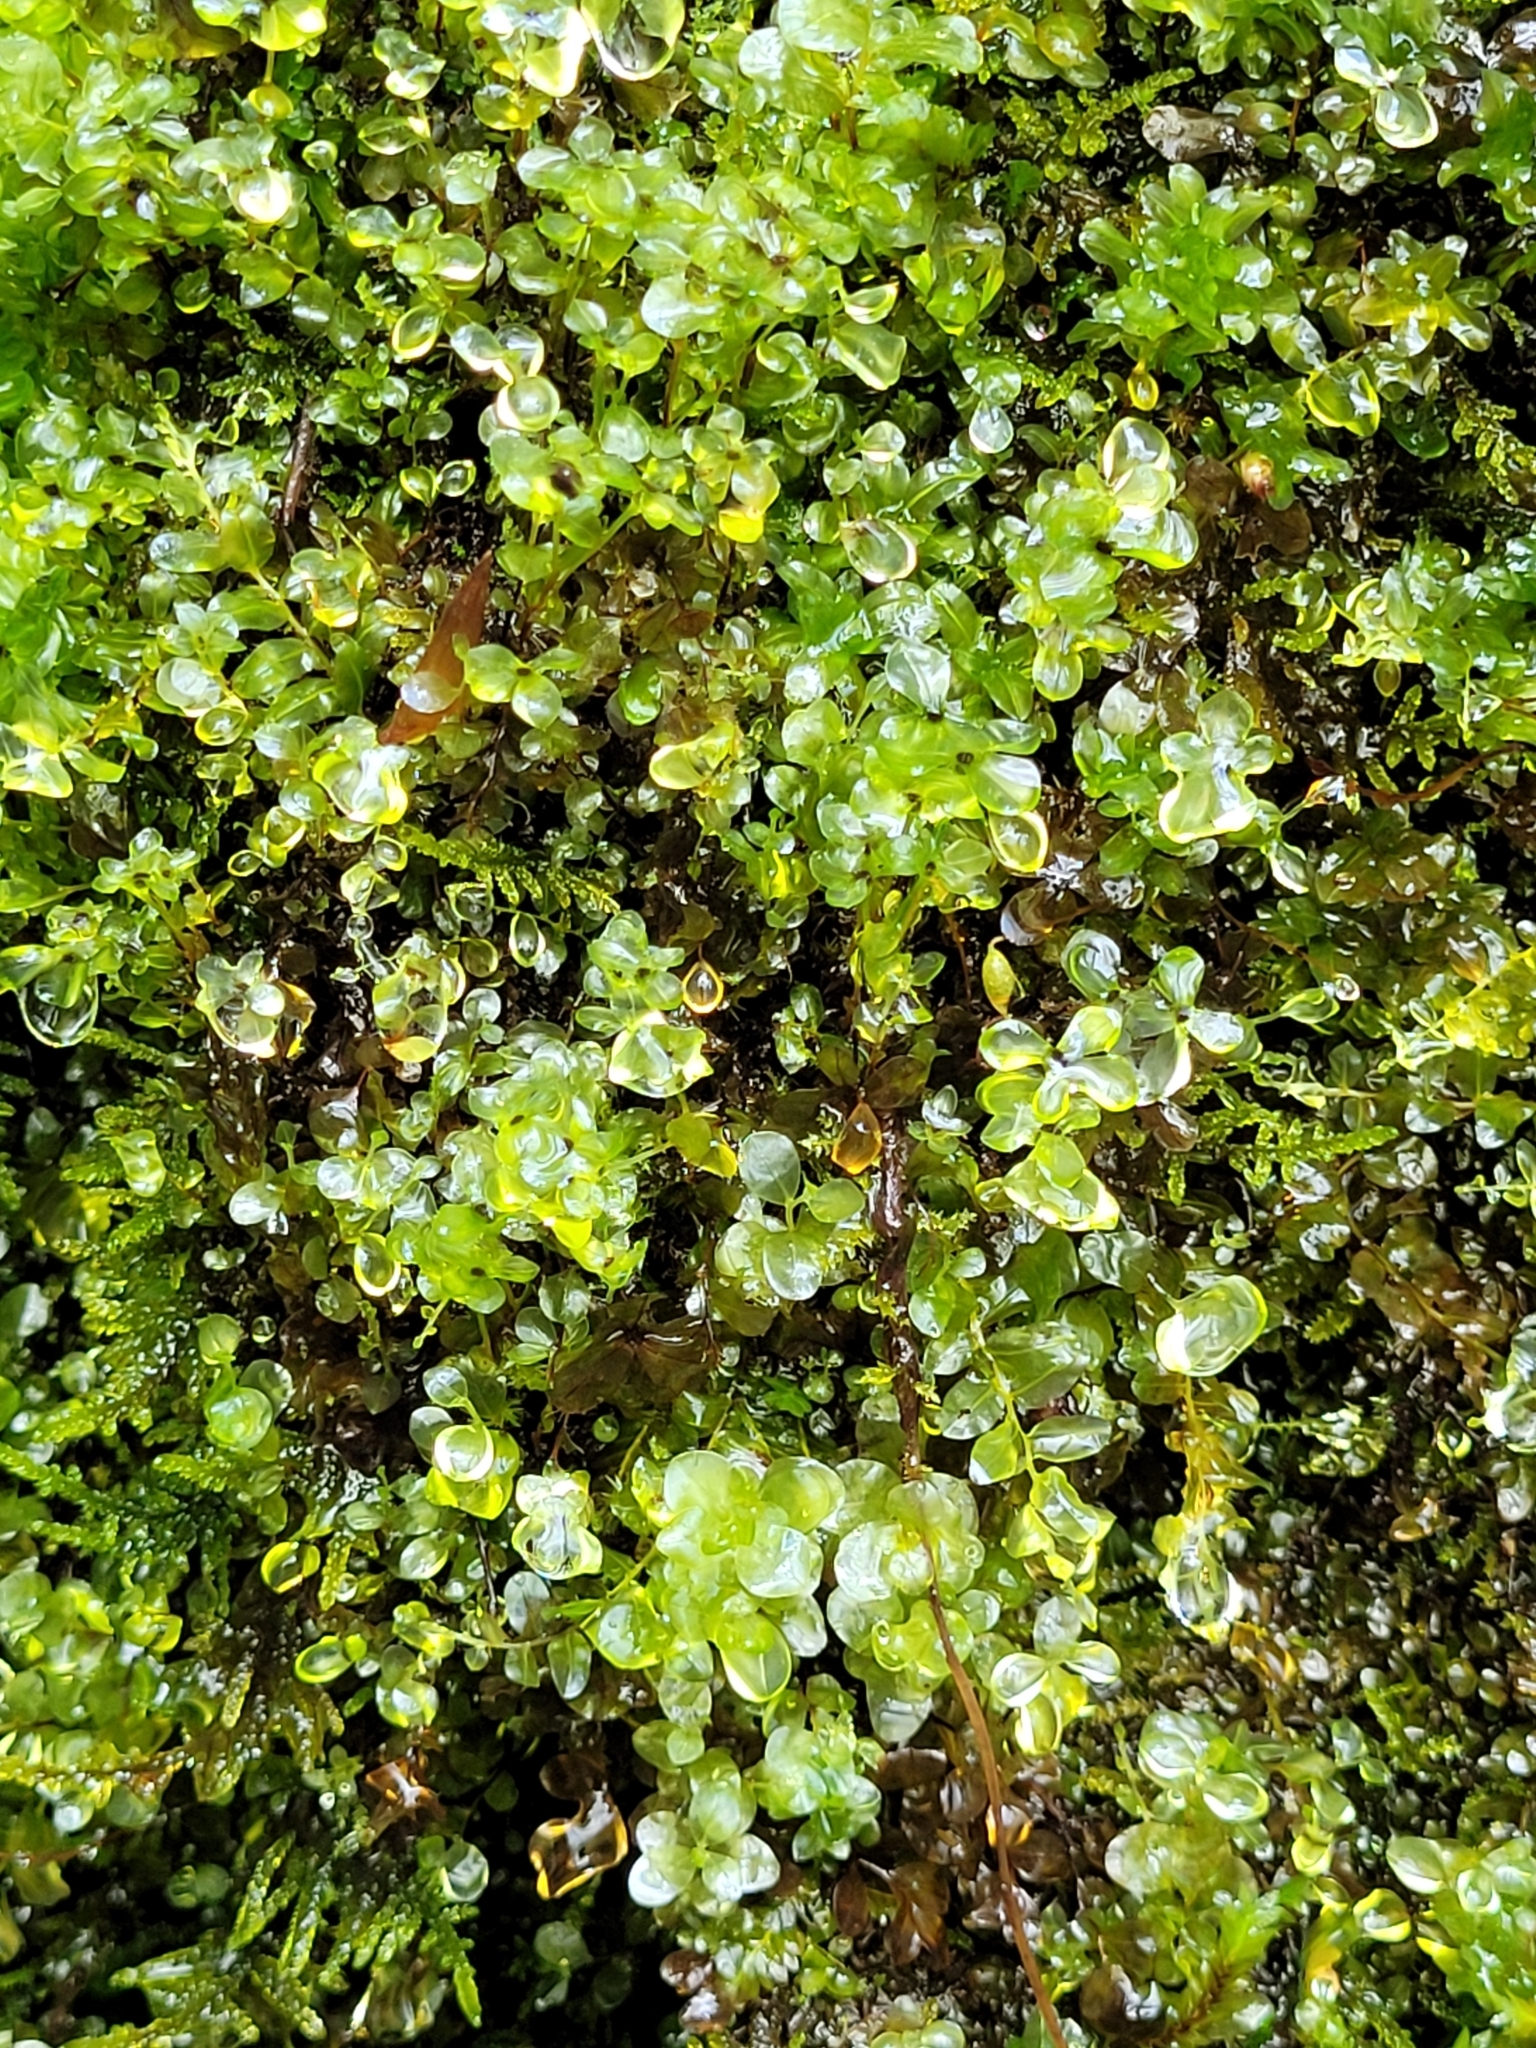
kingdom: Plantae
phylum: Bryophyta
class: Bryopsida
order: Bryales
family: Mniaceae
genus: Rhizomnium
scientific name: Rhizomnium punctatum
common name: Dotted leafy moss
